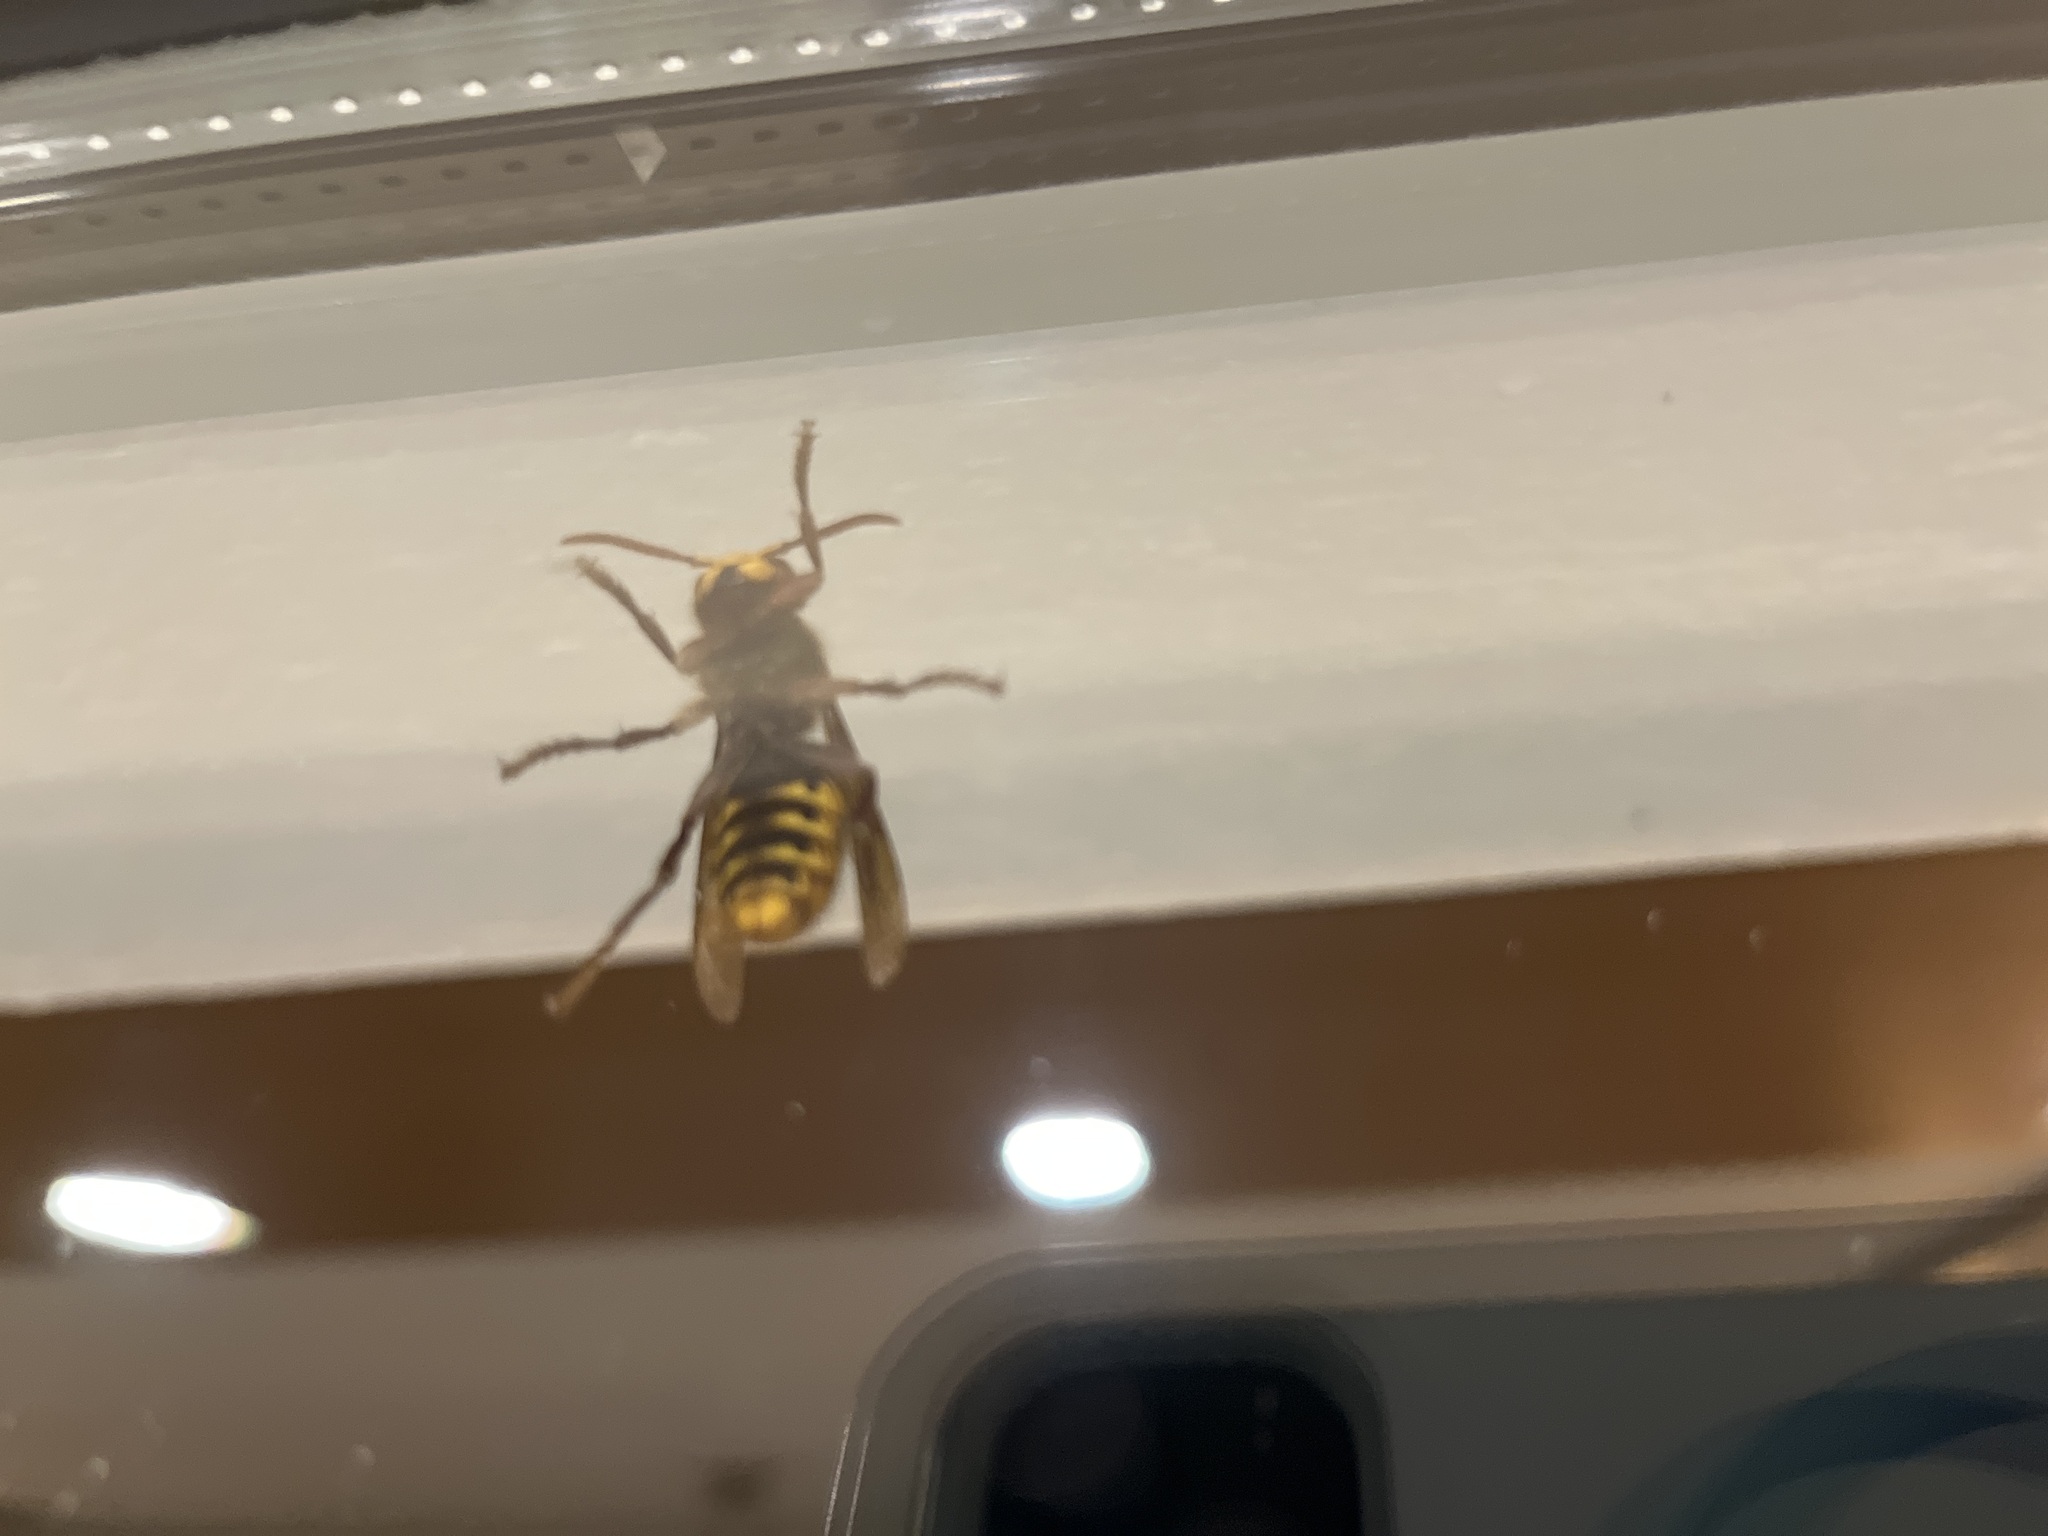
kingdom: Animalia
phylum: Arthropoda
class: Insecta
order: Hymenoptera
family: Vespidae
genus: Vespa
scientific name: Vespa crabro
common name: Hornet
